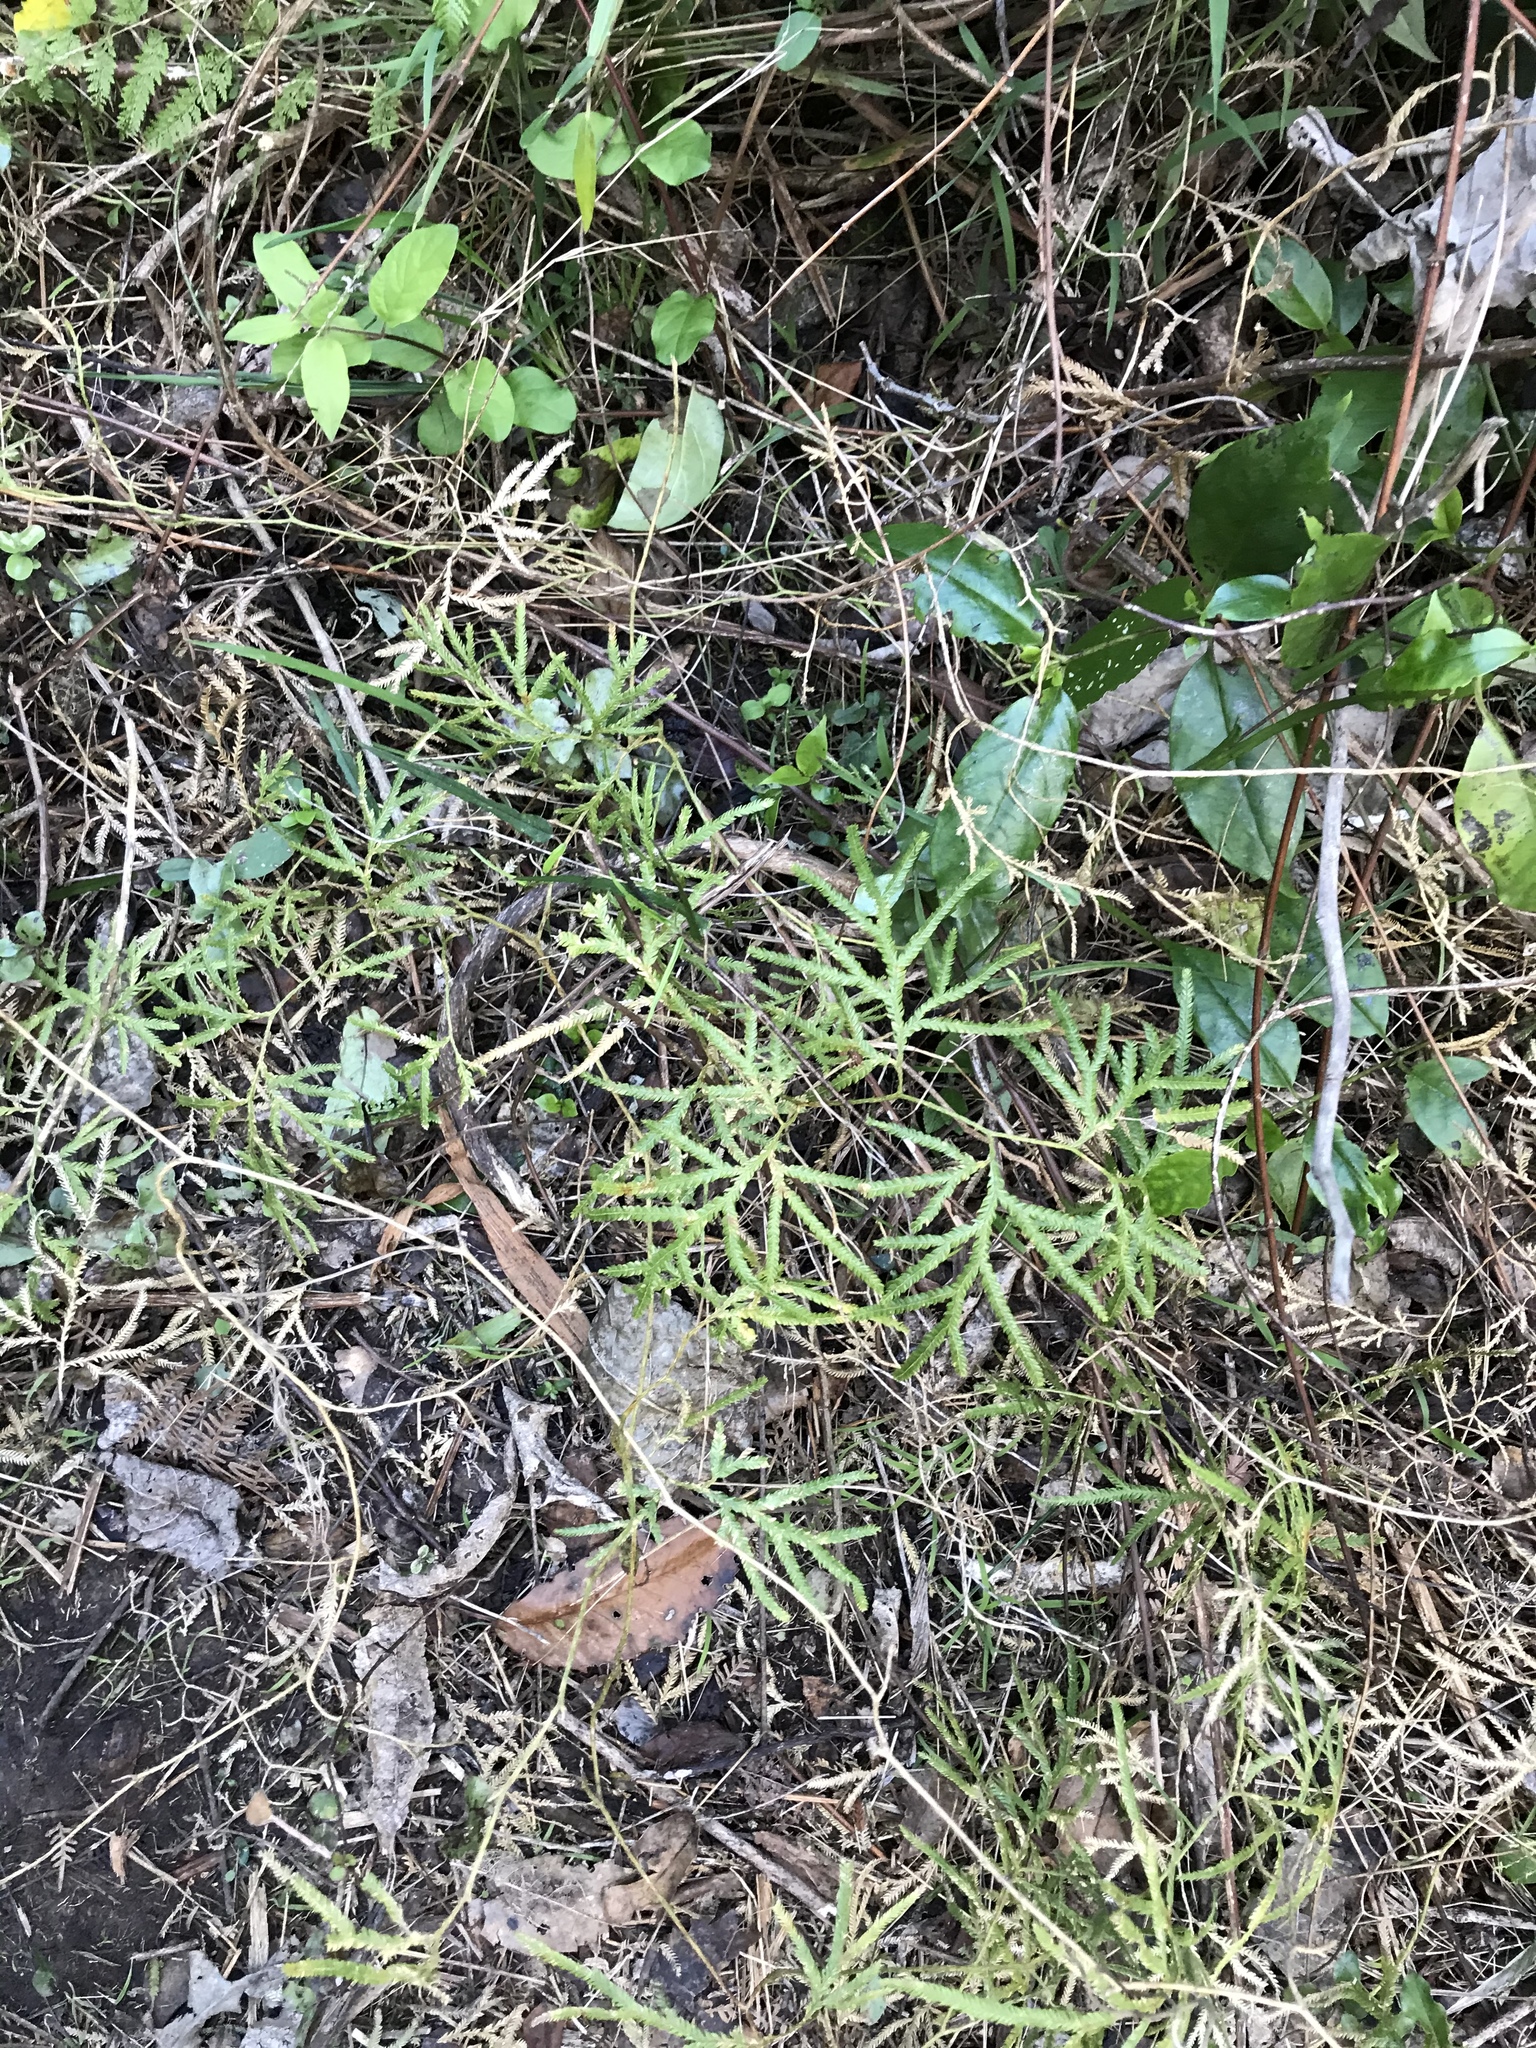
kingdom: Plantae
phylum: Tracheophyta
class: Lycopodiopsida
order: Lycopodiales
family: Lycopodiaceae
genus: Lycopodium
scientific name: Lycopodium volubile
